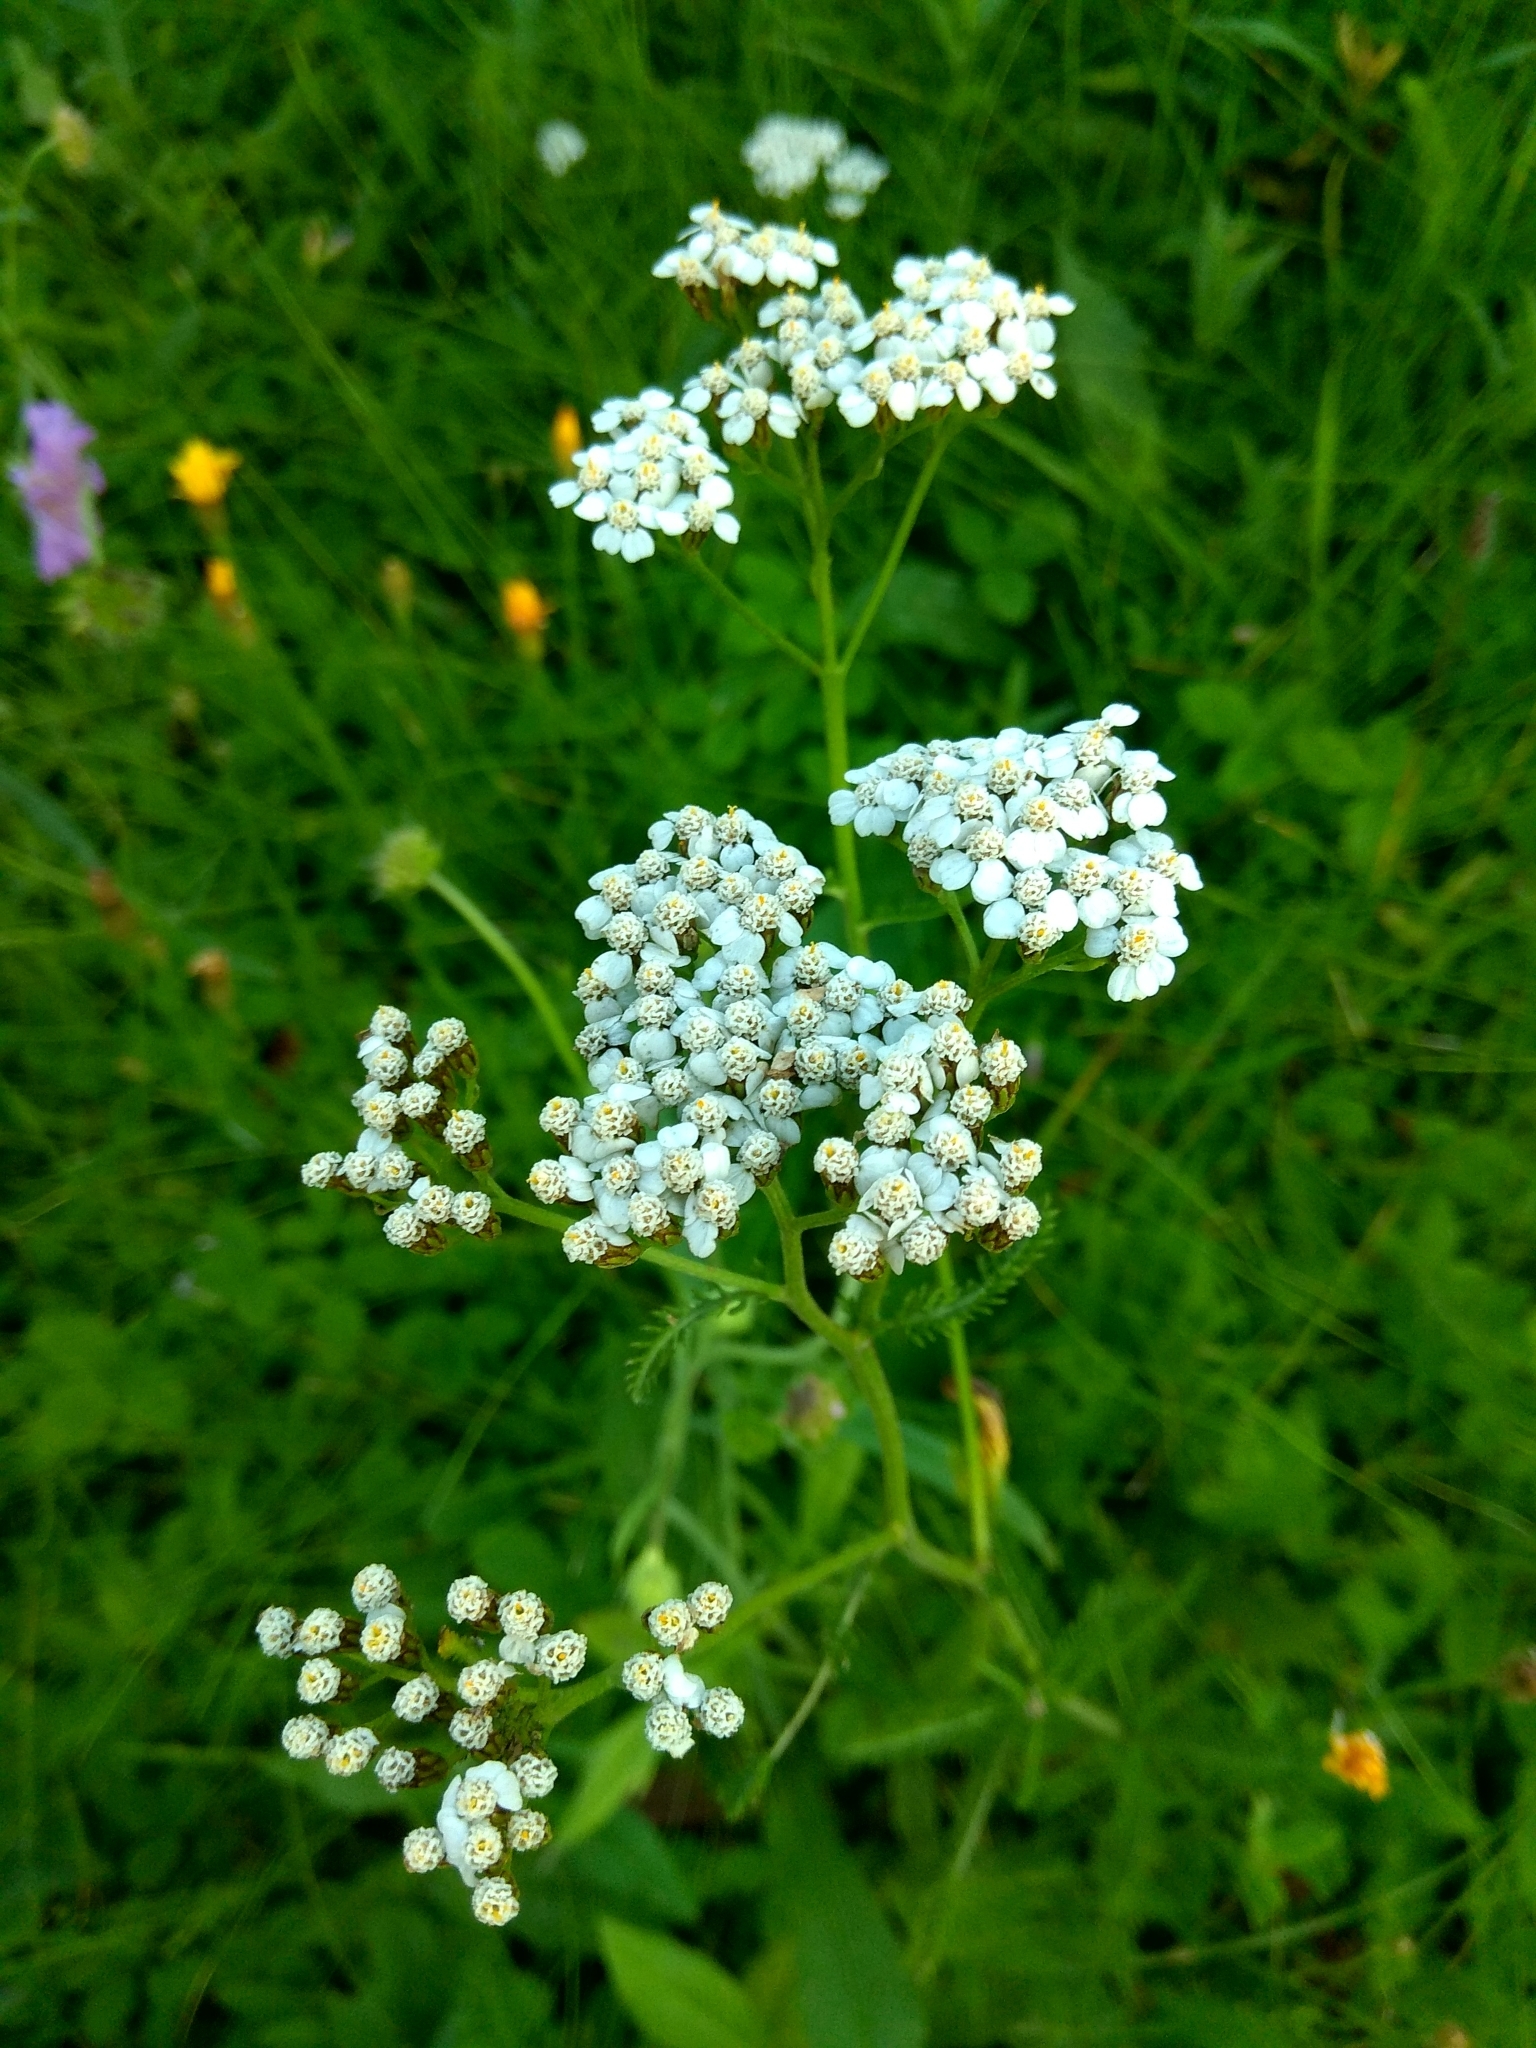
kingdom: Plantae
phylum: Tracheophyta
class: Magnoliopsida
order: Asterales
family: Asteraceae
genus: Achillea
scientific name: Achillea millefolium
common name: Yarrow
